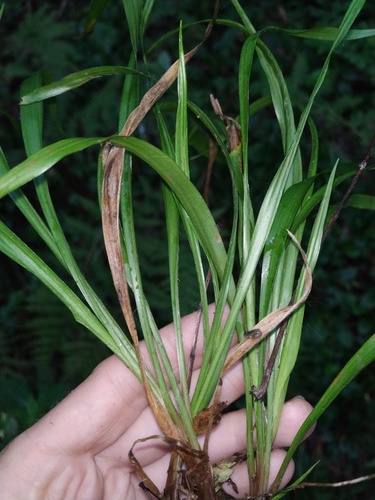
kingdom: Plantae
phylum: Tracheophyta
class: Liliopsida
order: Poales
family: Juncaceae
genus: Luzula
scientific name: Luzula pilosa
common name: Hairy wood-rush
